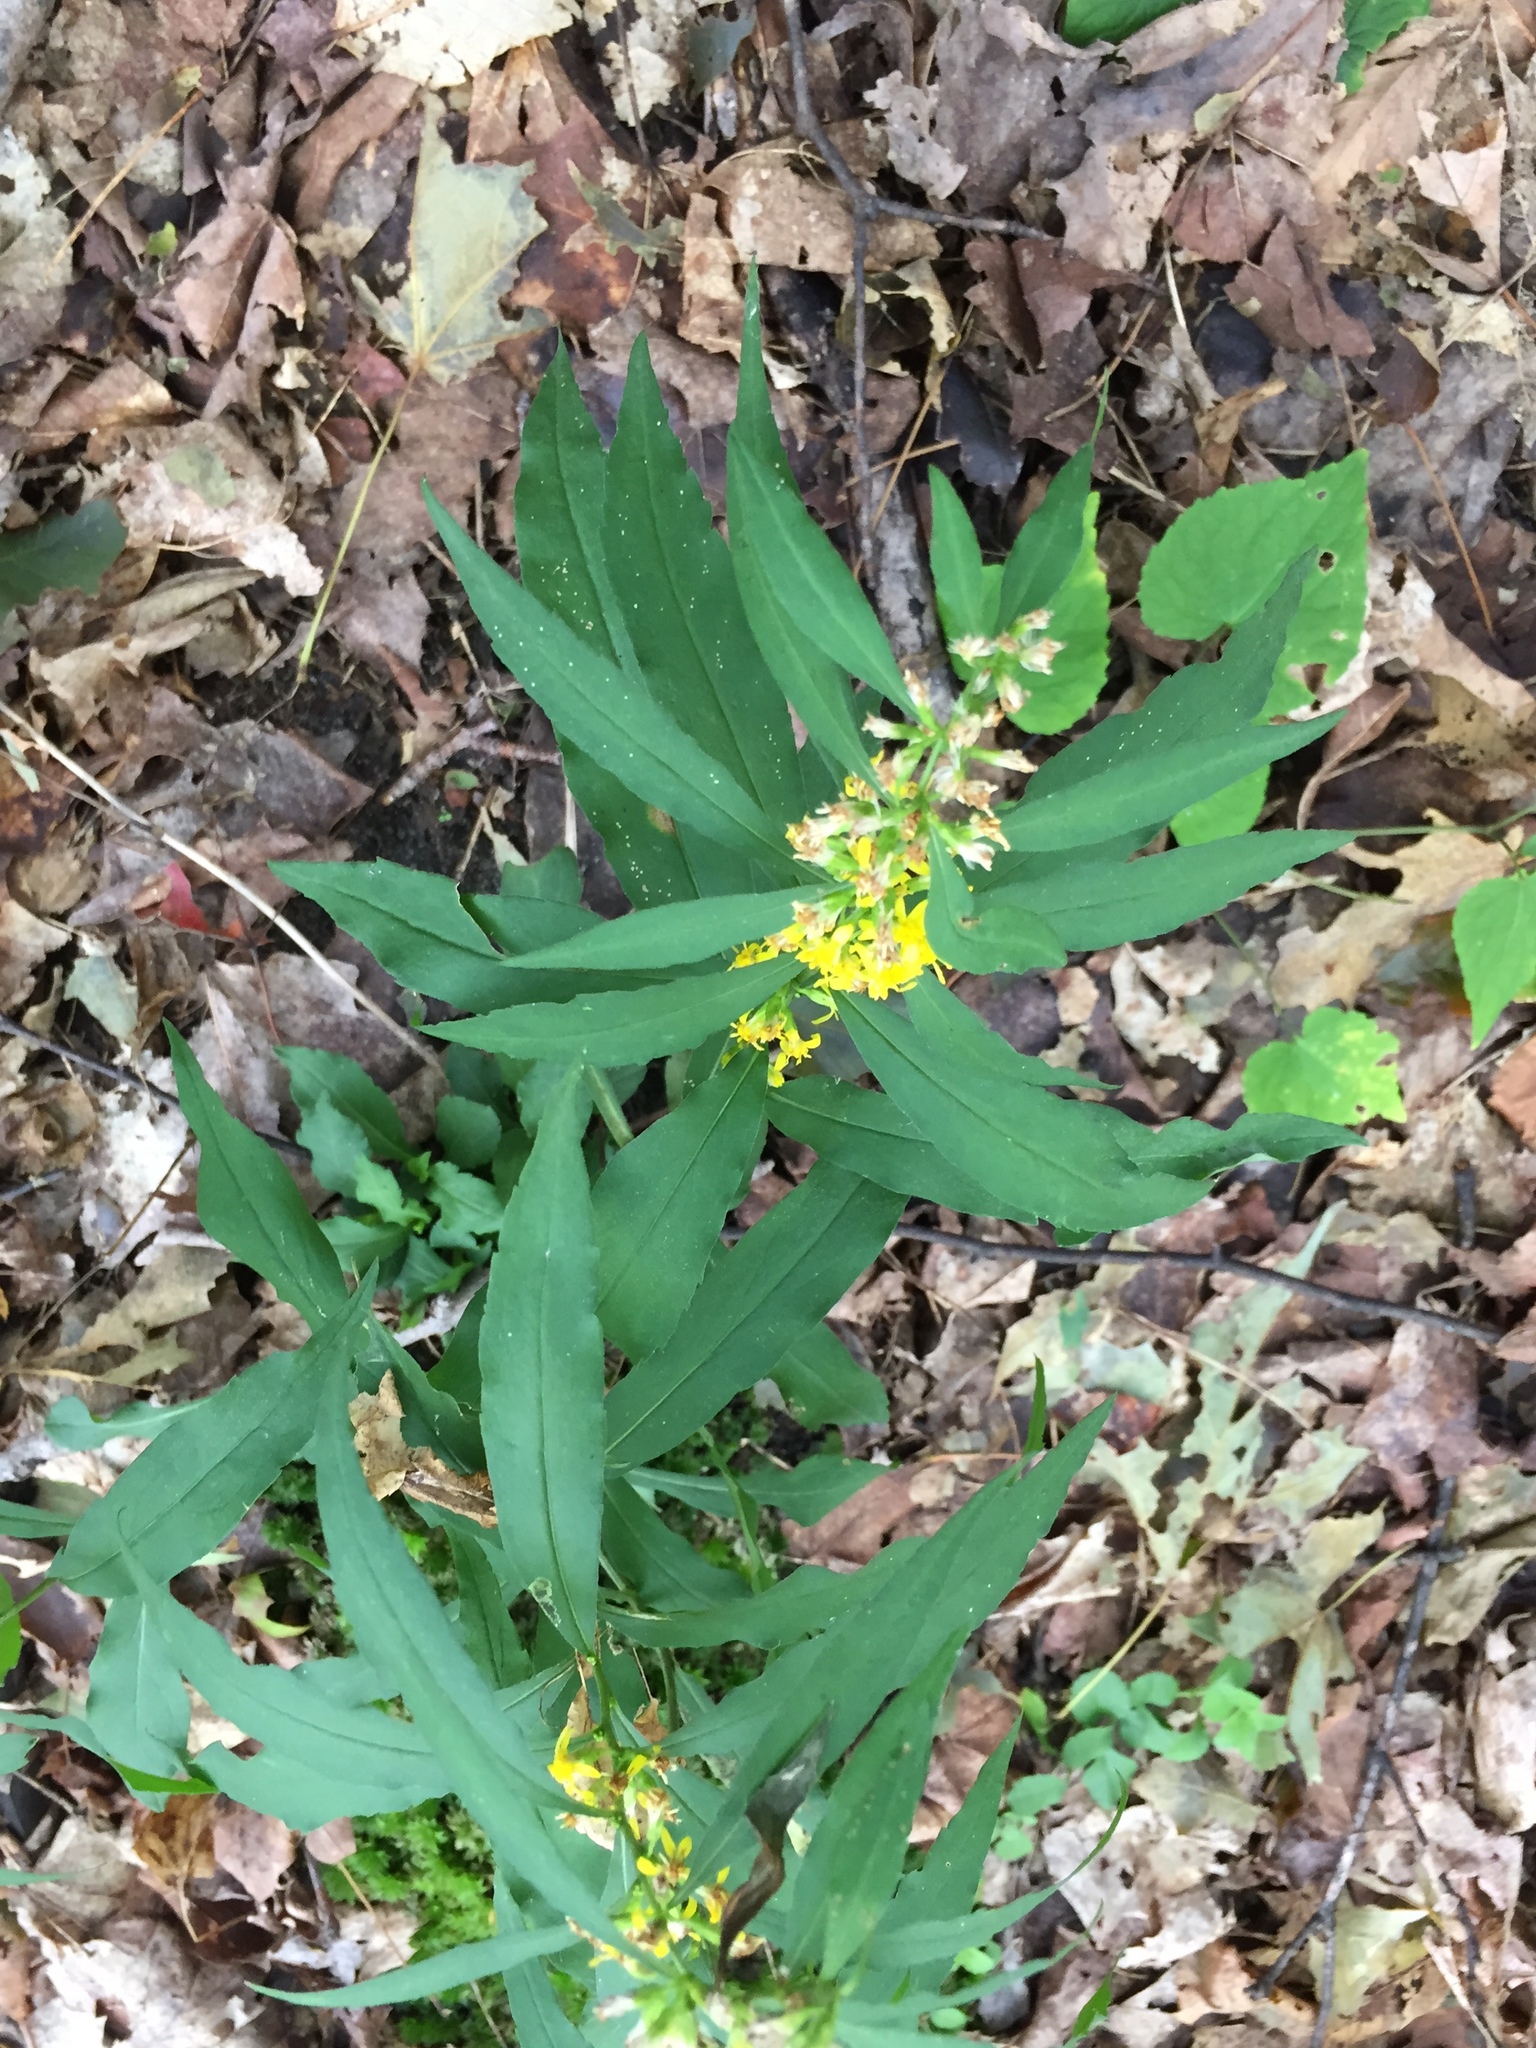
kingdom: Plantae
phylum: Tracheophyta
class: Magnoliopsida
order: Asterales
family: Asteraceae
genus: Solidago
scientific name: Solidago caesia
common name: Woodland goldenrod
